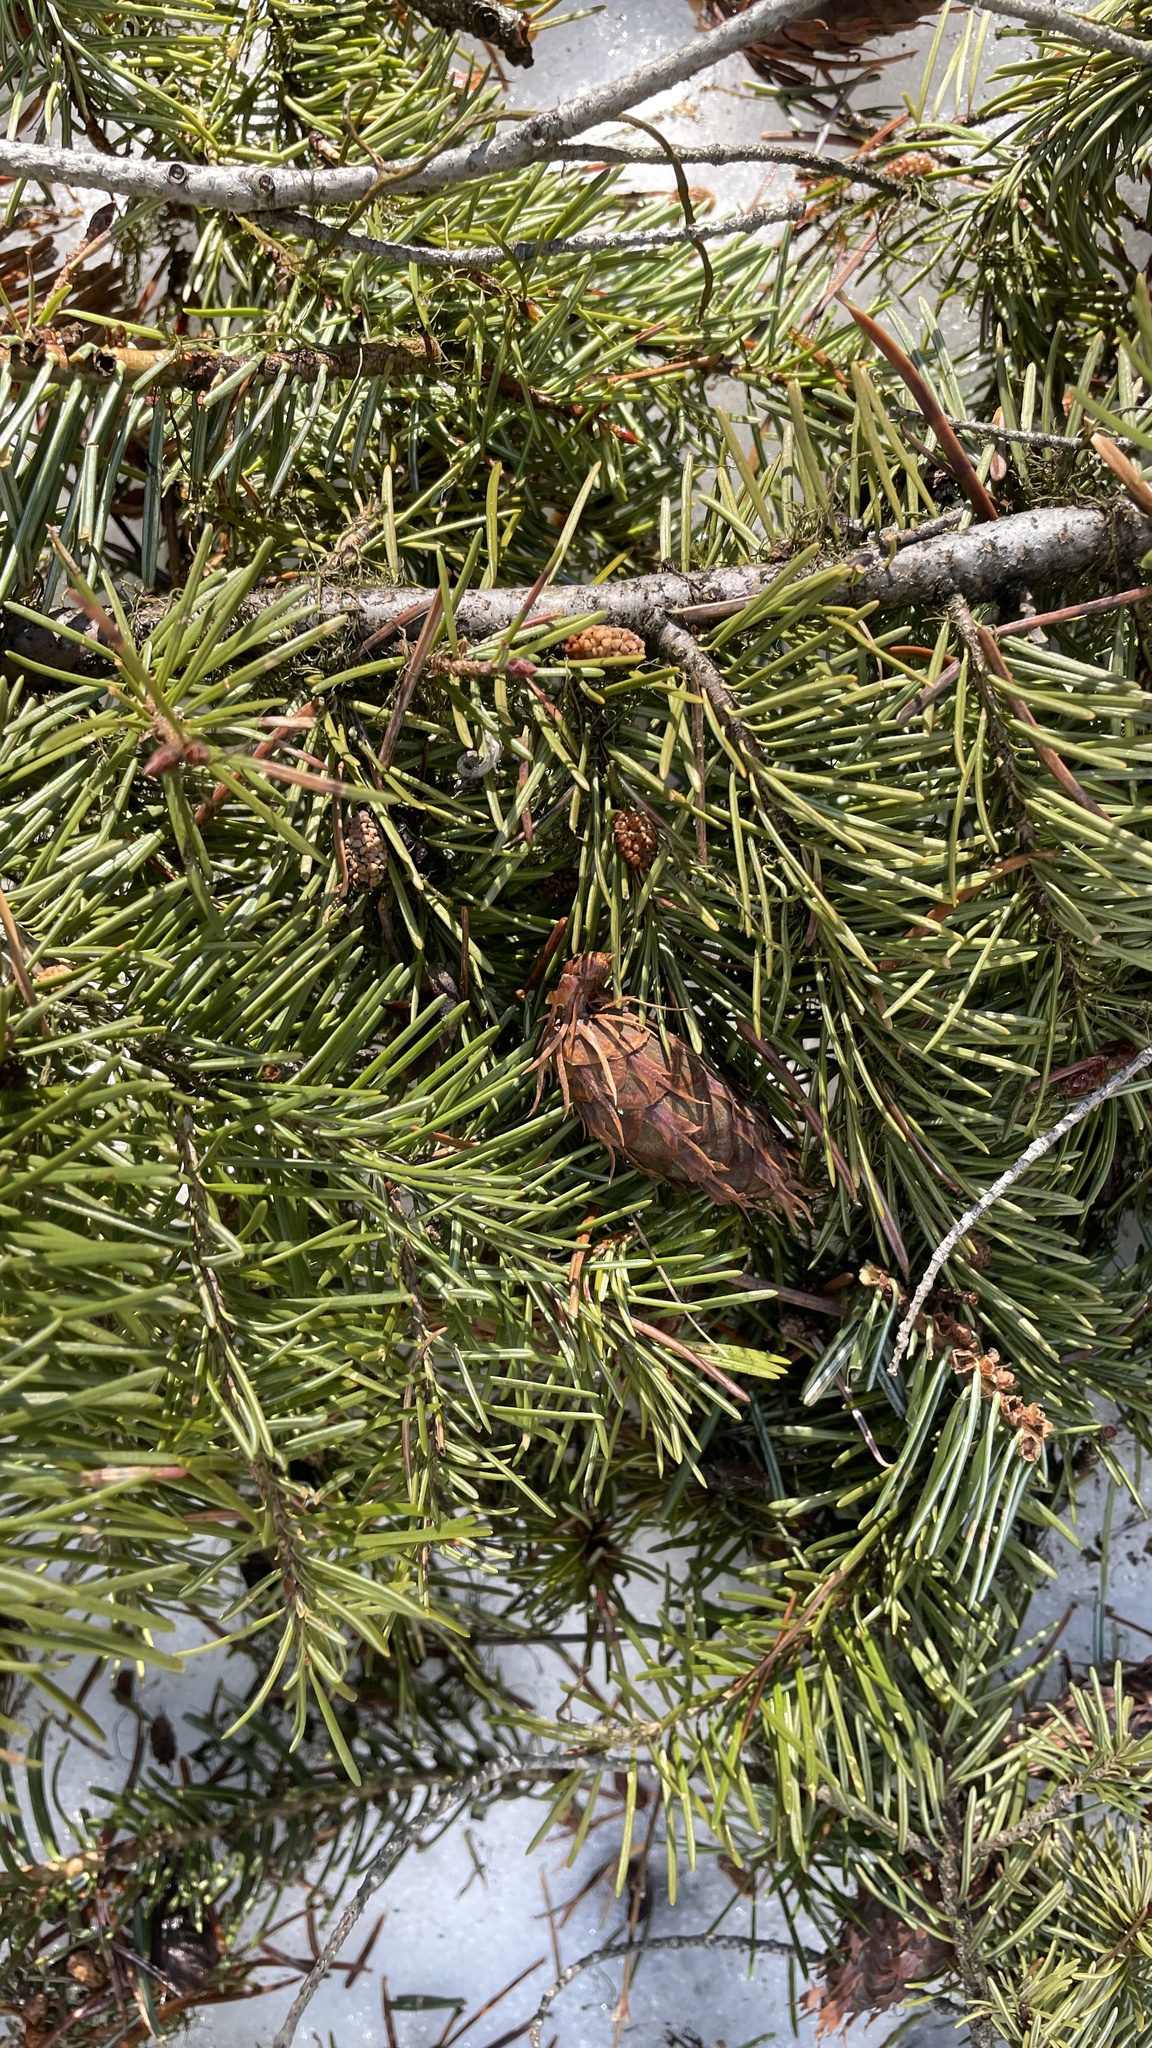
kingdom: Plantae
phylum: Tracheophyta
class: Pinopsida
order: Pinales
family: Pinaceae
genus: Pseudotsuga
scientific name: Pseudotsuga menziesii
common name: Douglas fir
